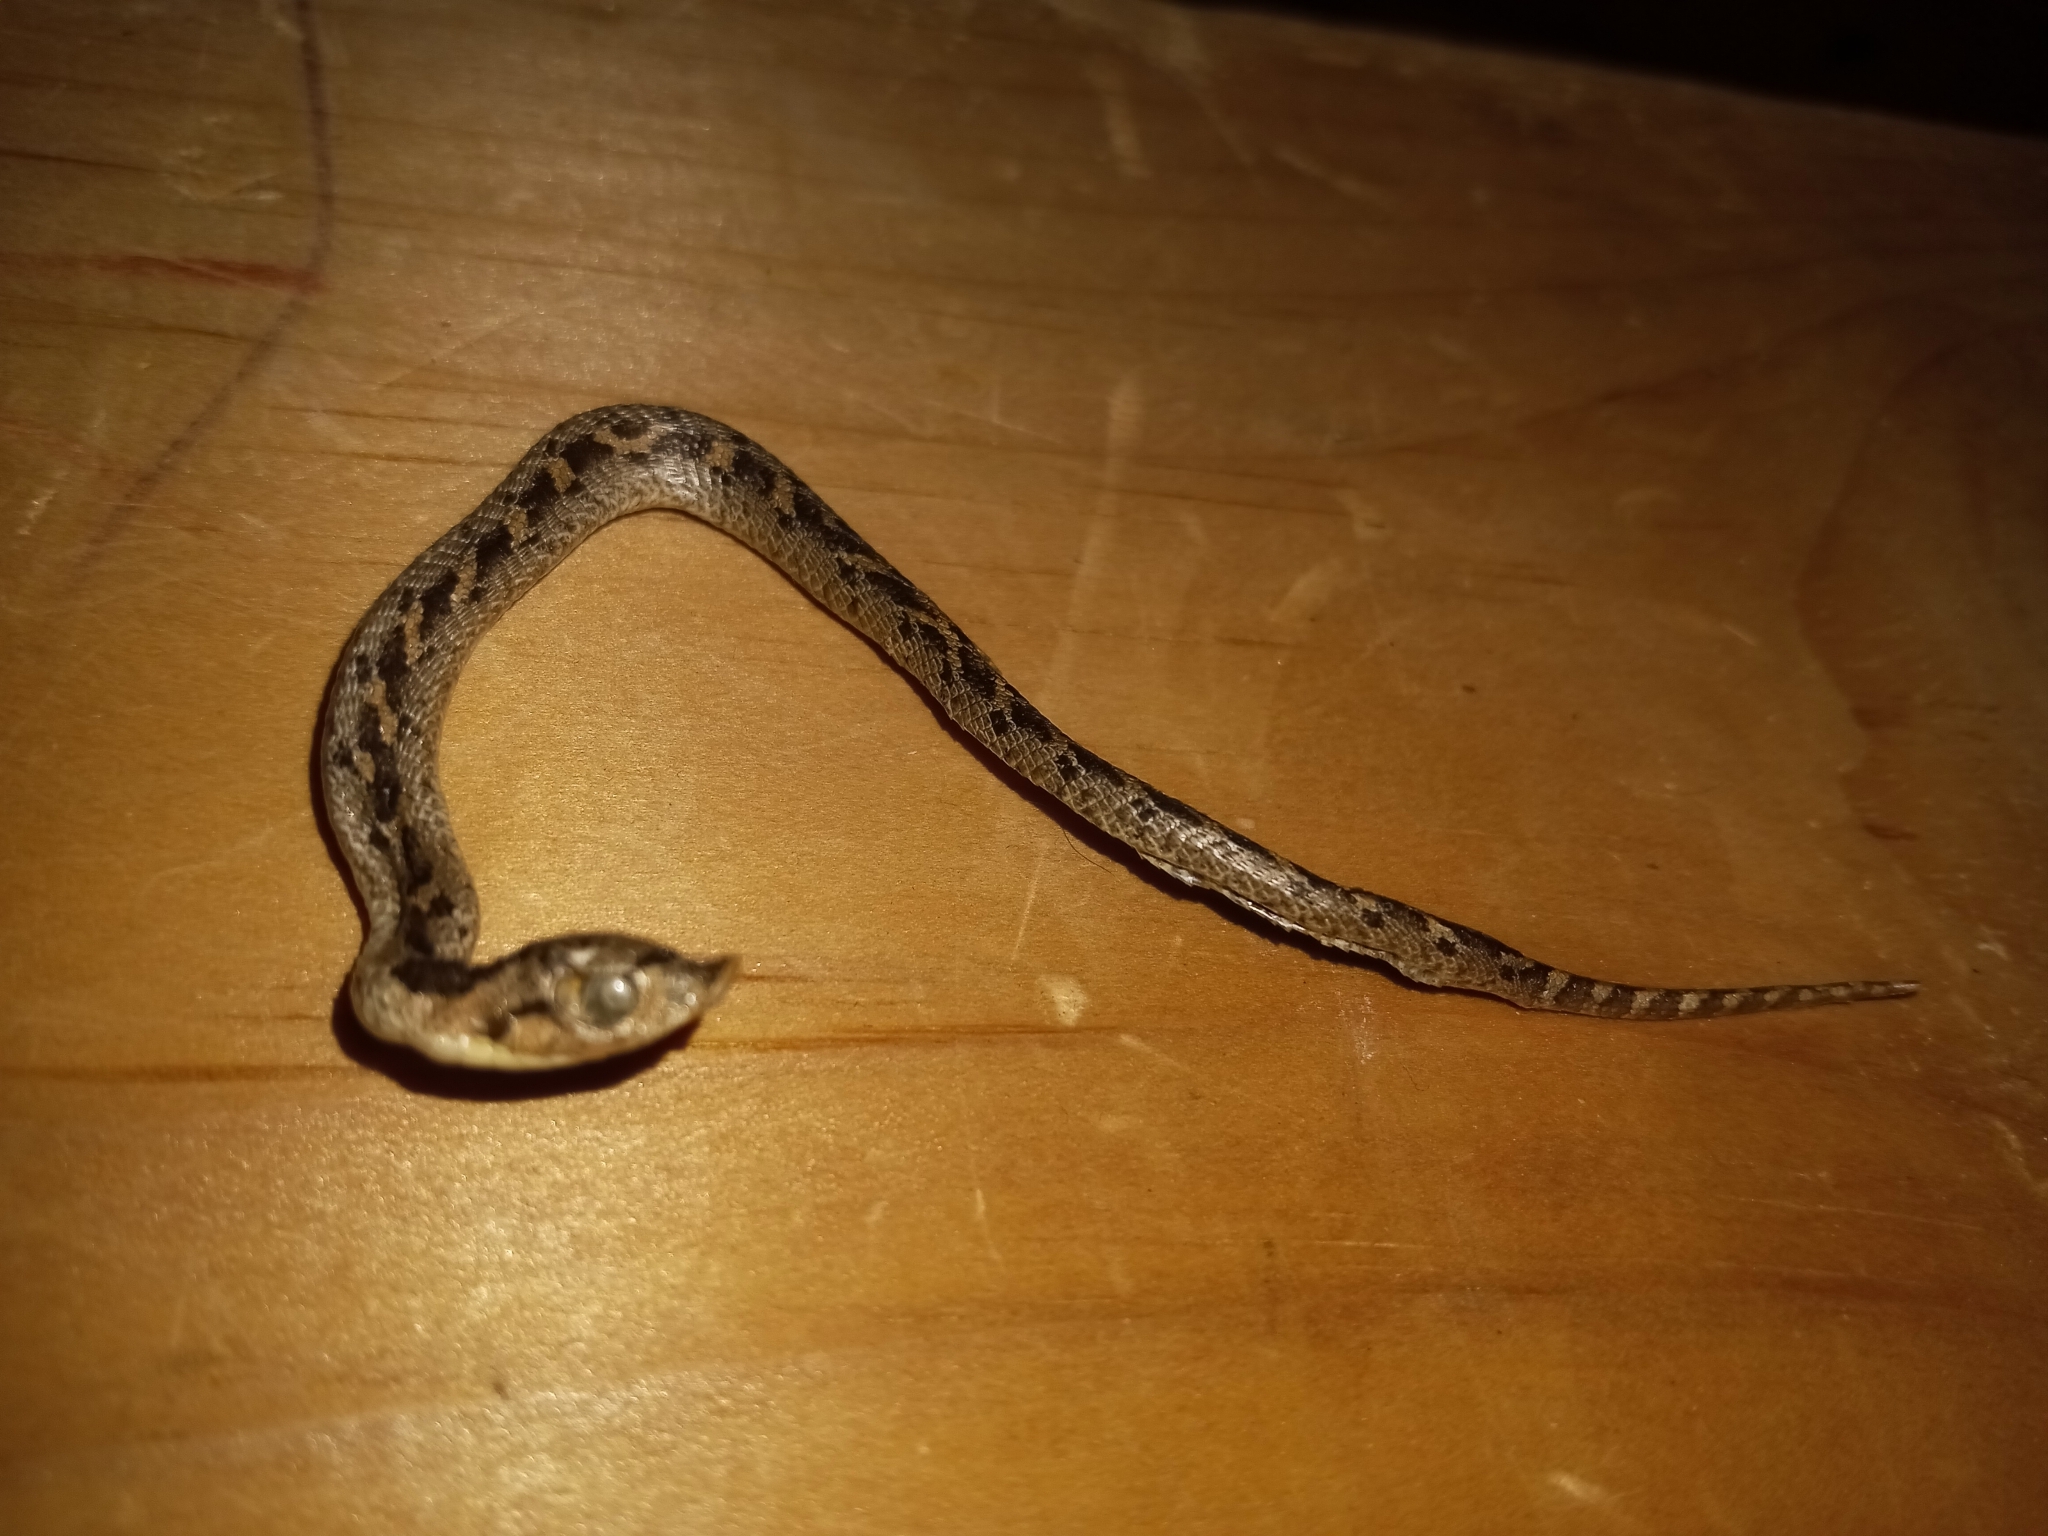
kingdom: Animalia
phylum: Chordata
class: Squamata
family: Colubridae
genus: Heterodon
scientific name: Heterodon simus
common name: Southern hognose snake
